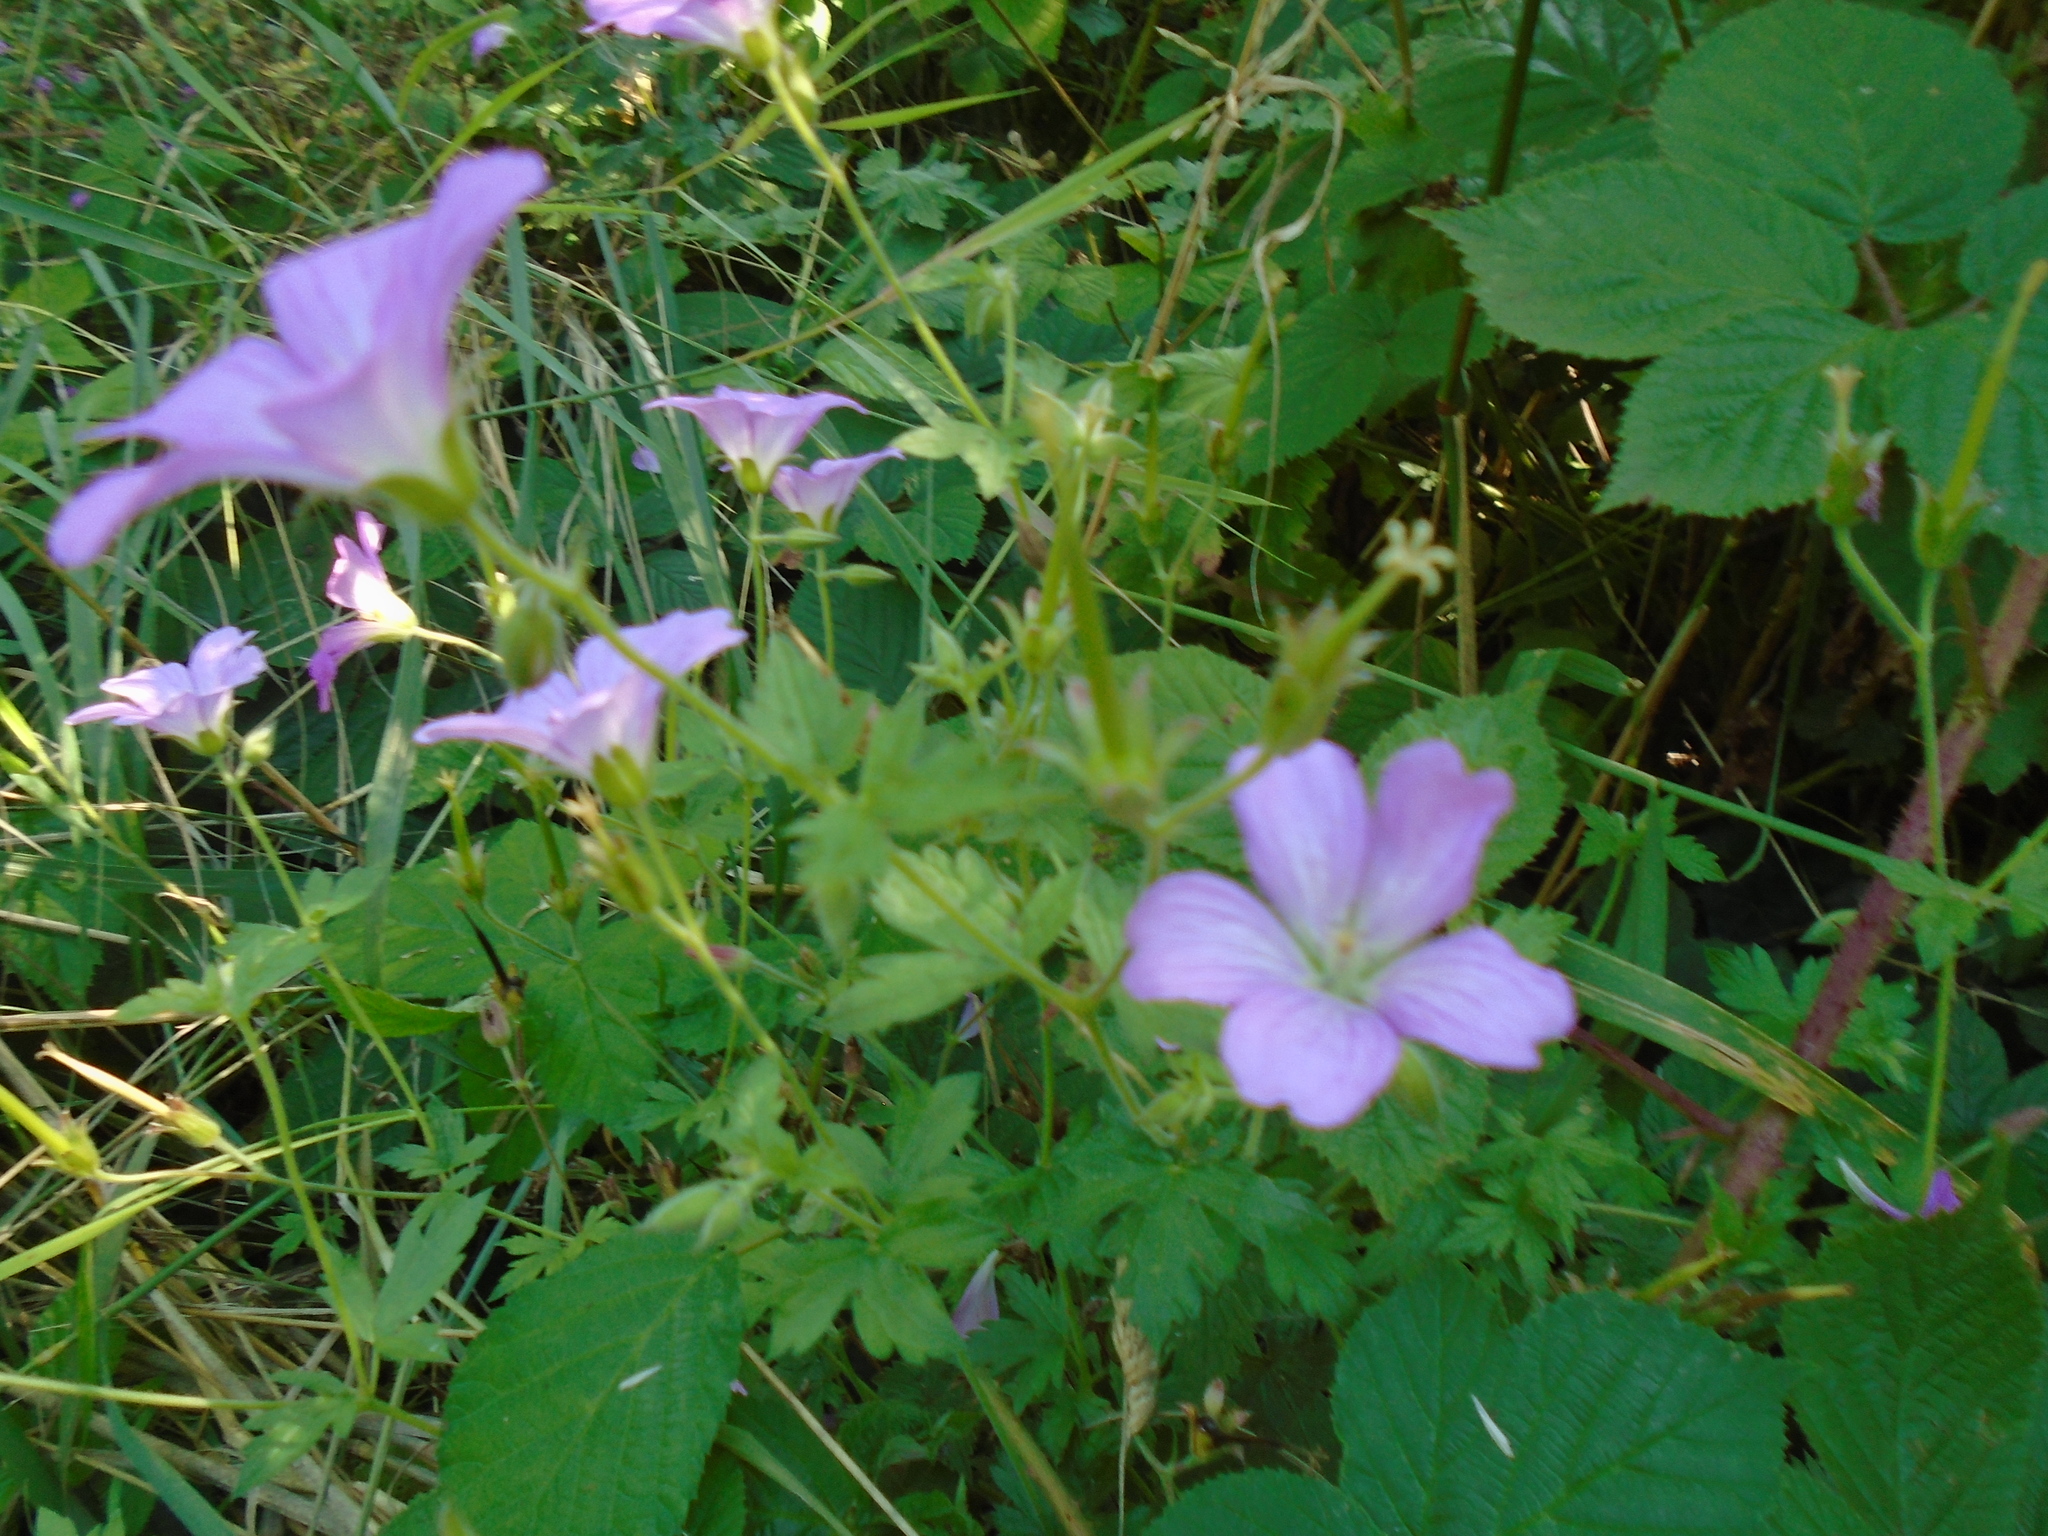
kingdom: Plantae
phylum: Tracheophyta
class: Magnoliopsida
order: Geraniales
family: Geraniaceae
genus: Geranium
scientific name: Geranium oxonianum
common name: Druce's crane's-bill
